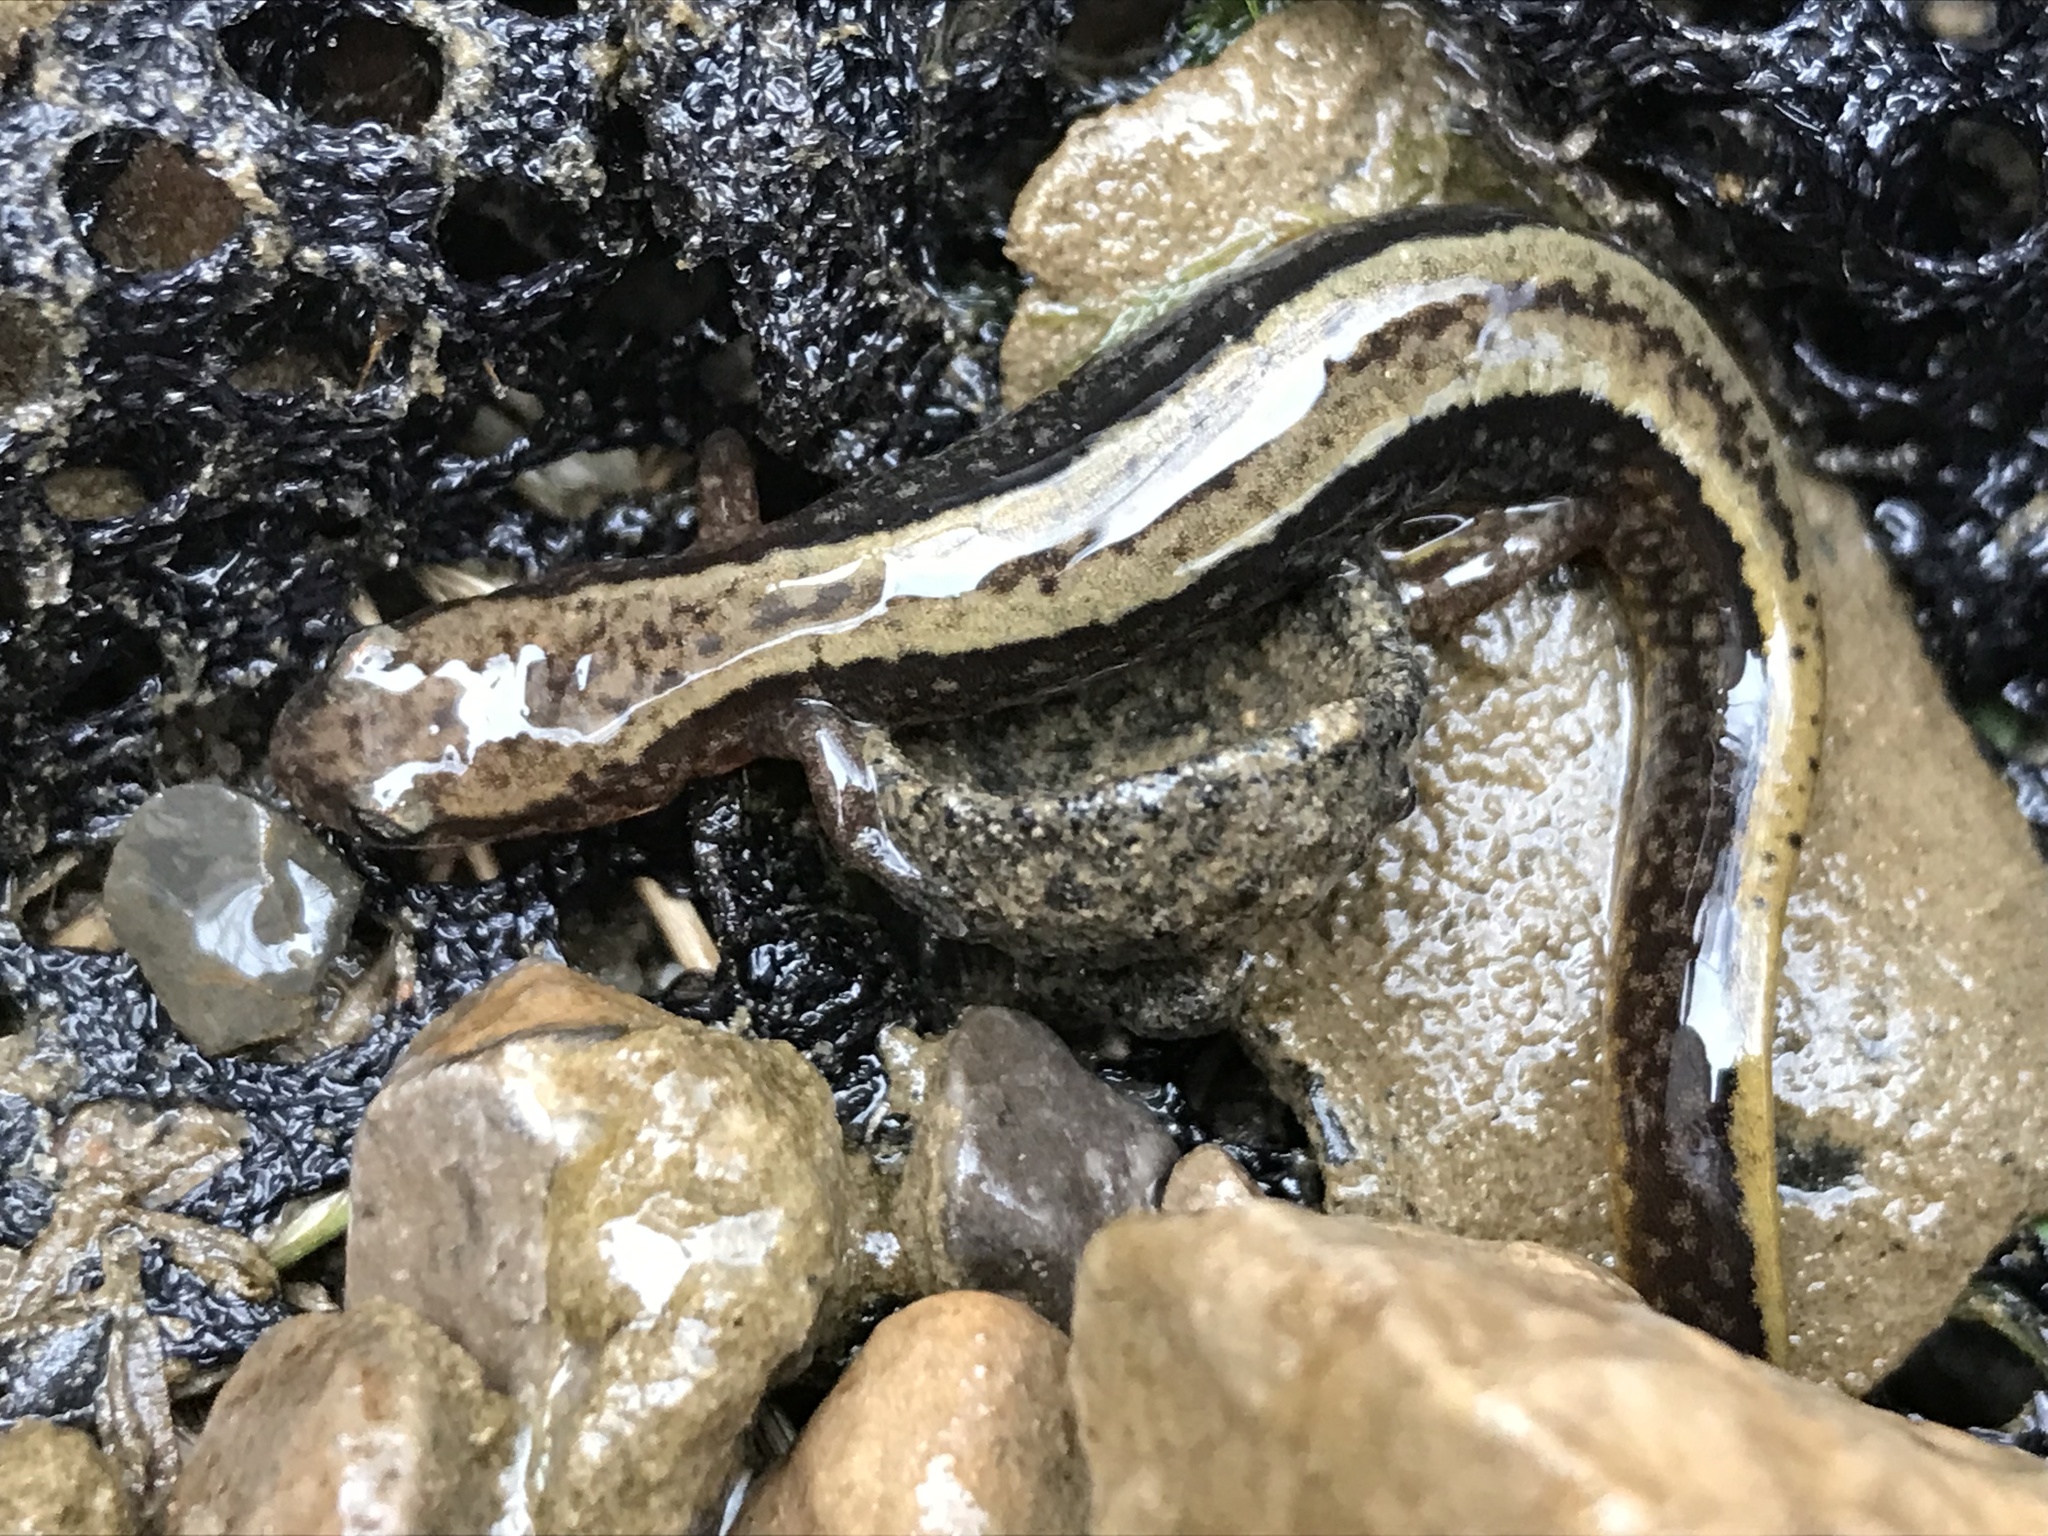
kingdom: Animalia
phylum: Chordata
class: Amphibia
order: Caudata
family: Plethodontidae
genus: Eurycea
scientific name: Eurycea cirrigera
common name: Southern two-lined salamander
